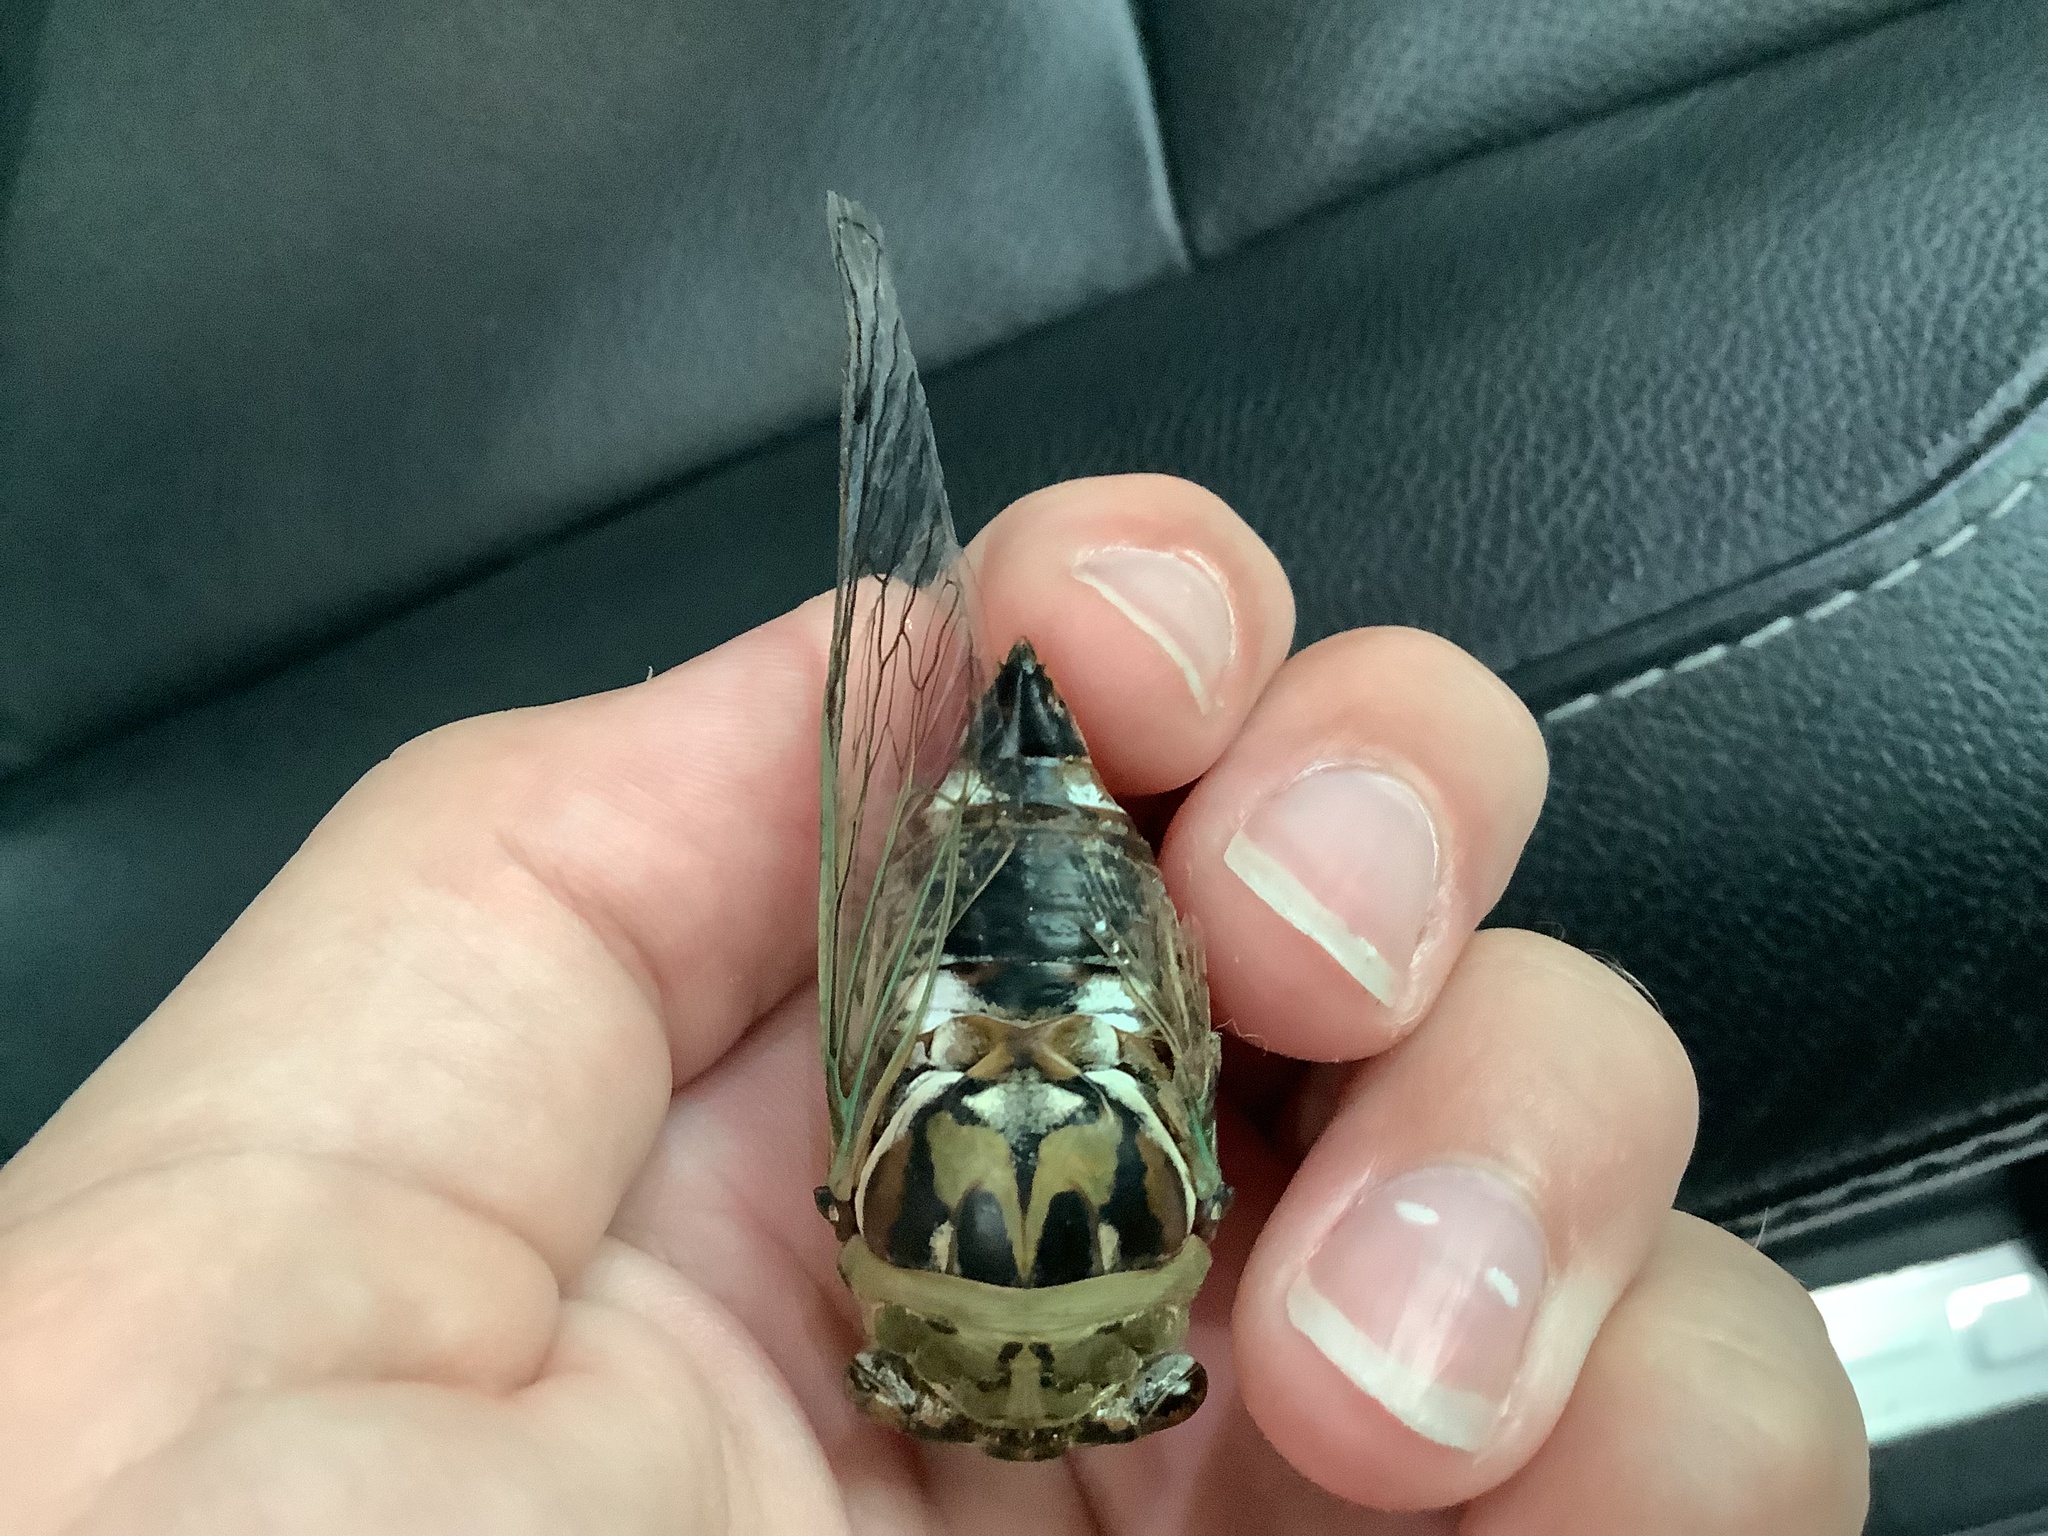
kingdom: Animalia
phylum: Arthropoda
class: Insecta
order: Hemiptera
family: Cicadidae
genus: Megatibicen
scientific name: Megatibicen resh
